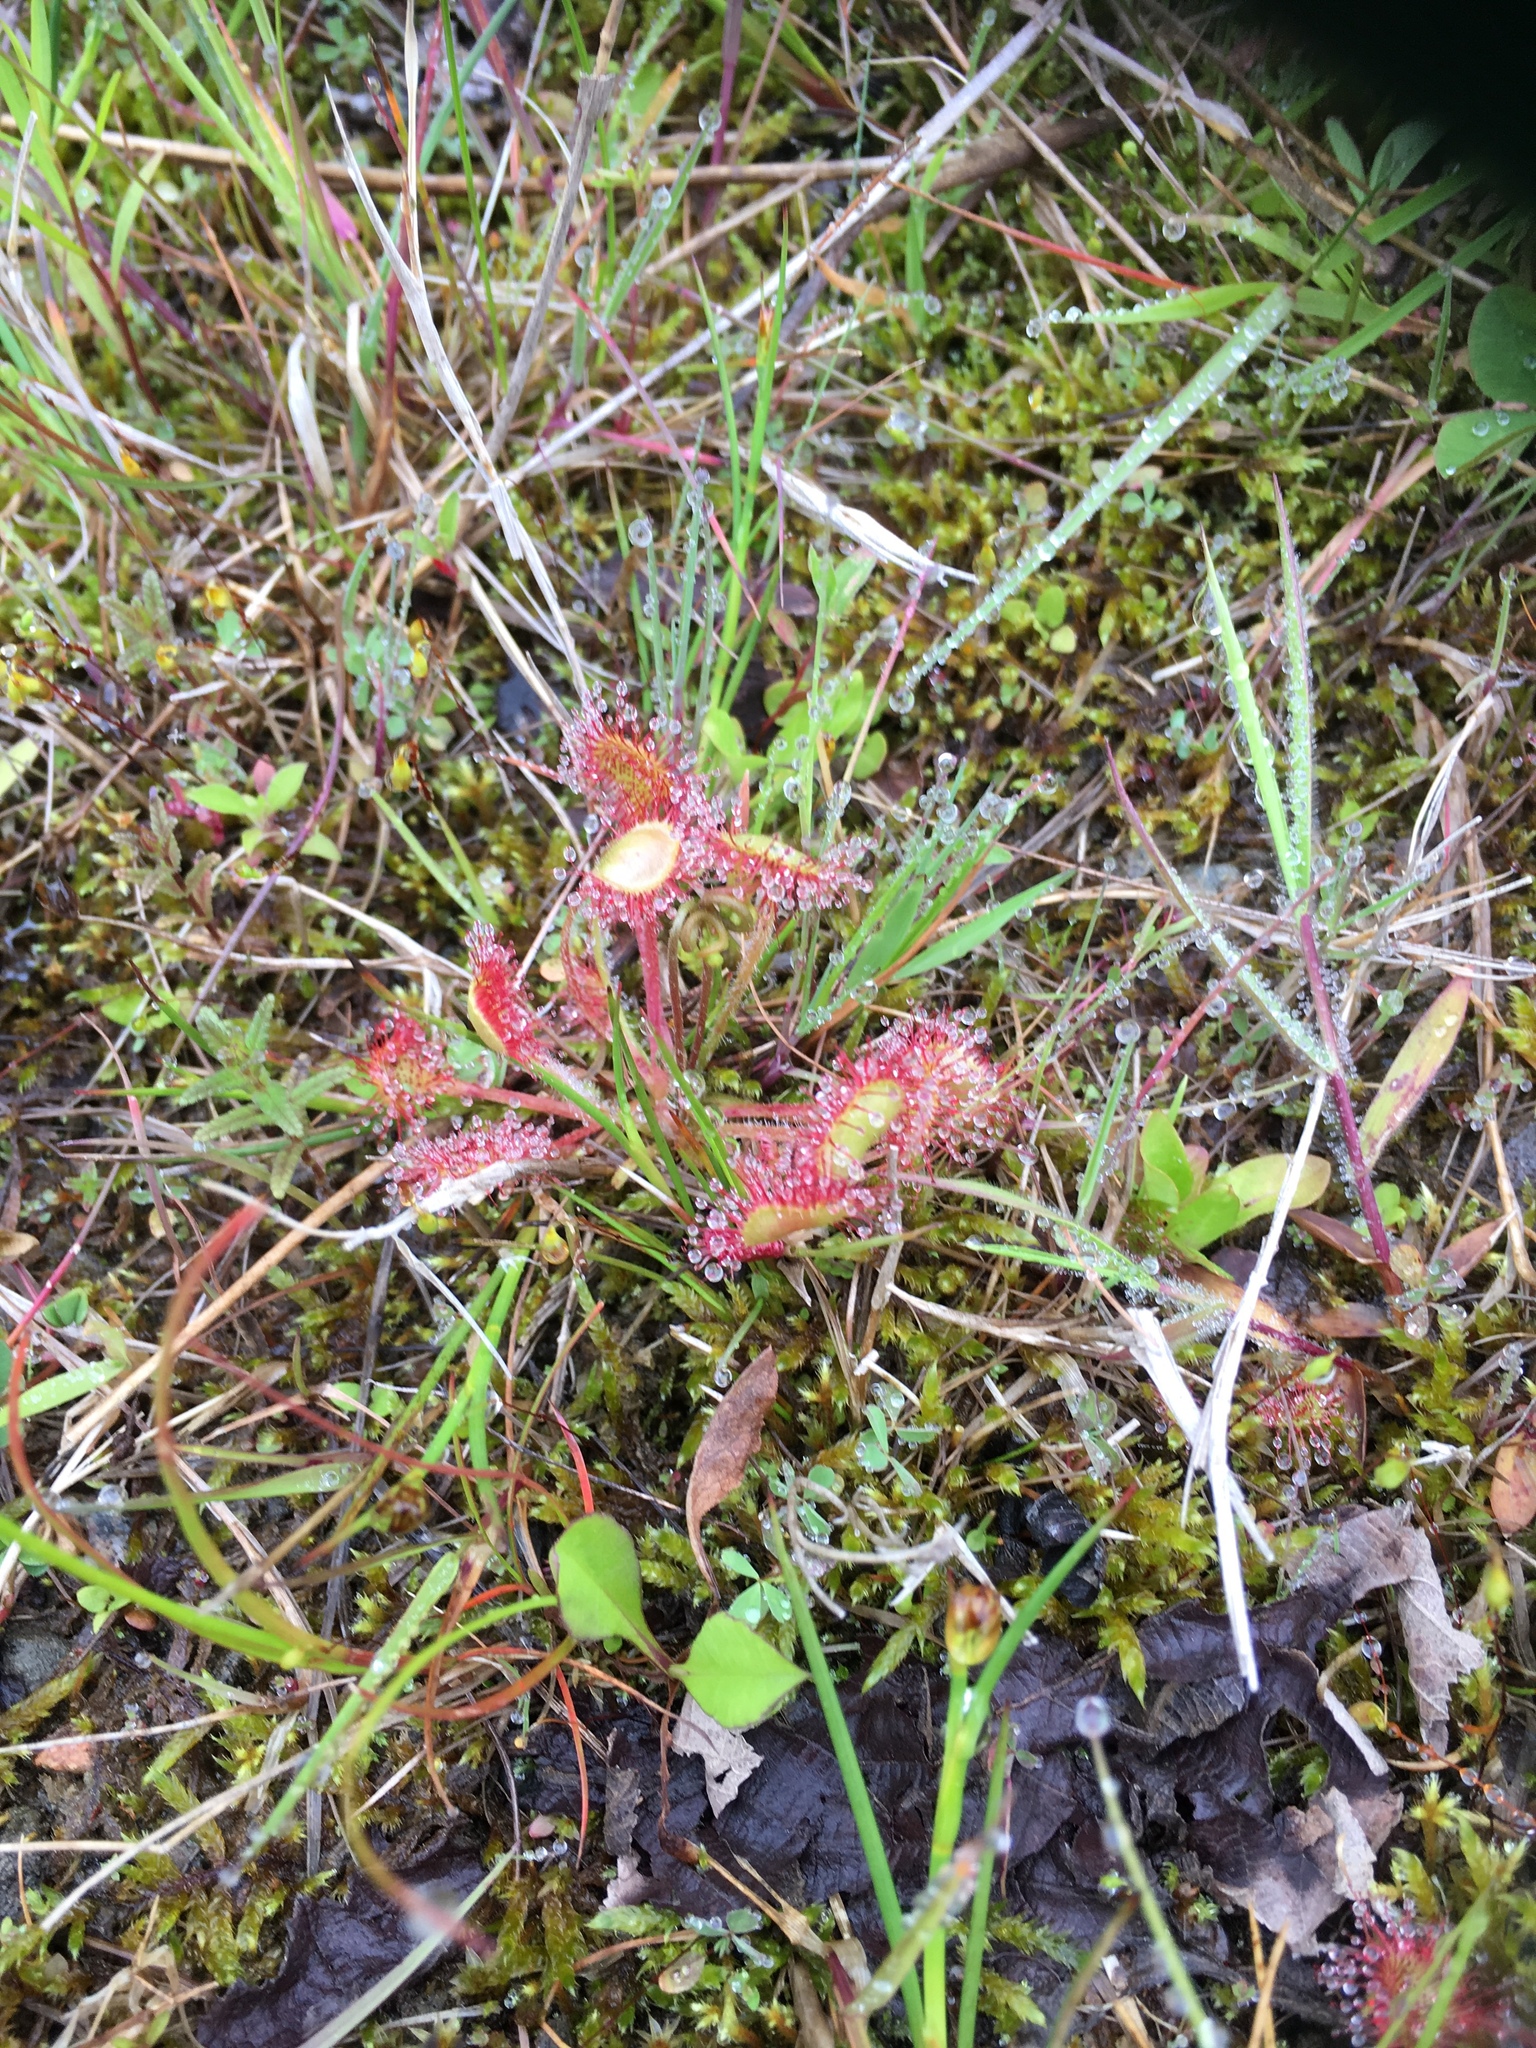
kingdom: Plantae
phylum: Tracheophyta
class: Magnoliopsida
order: Caryophyllales
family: Droseraceae
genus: Drosera
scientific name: Drosera rotundifolia
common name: Round-leaved sundew
